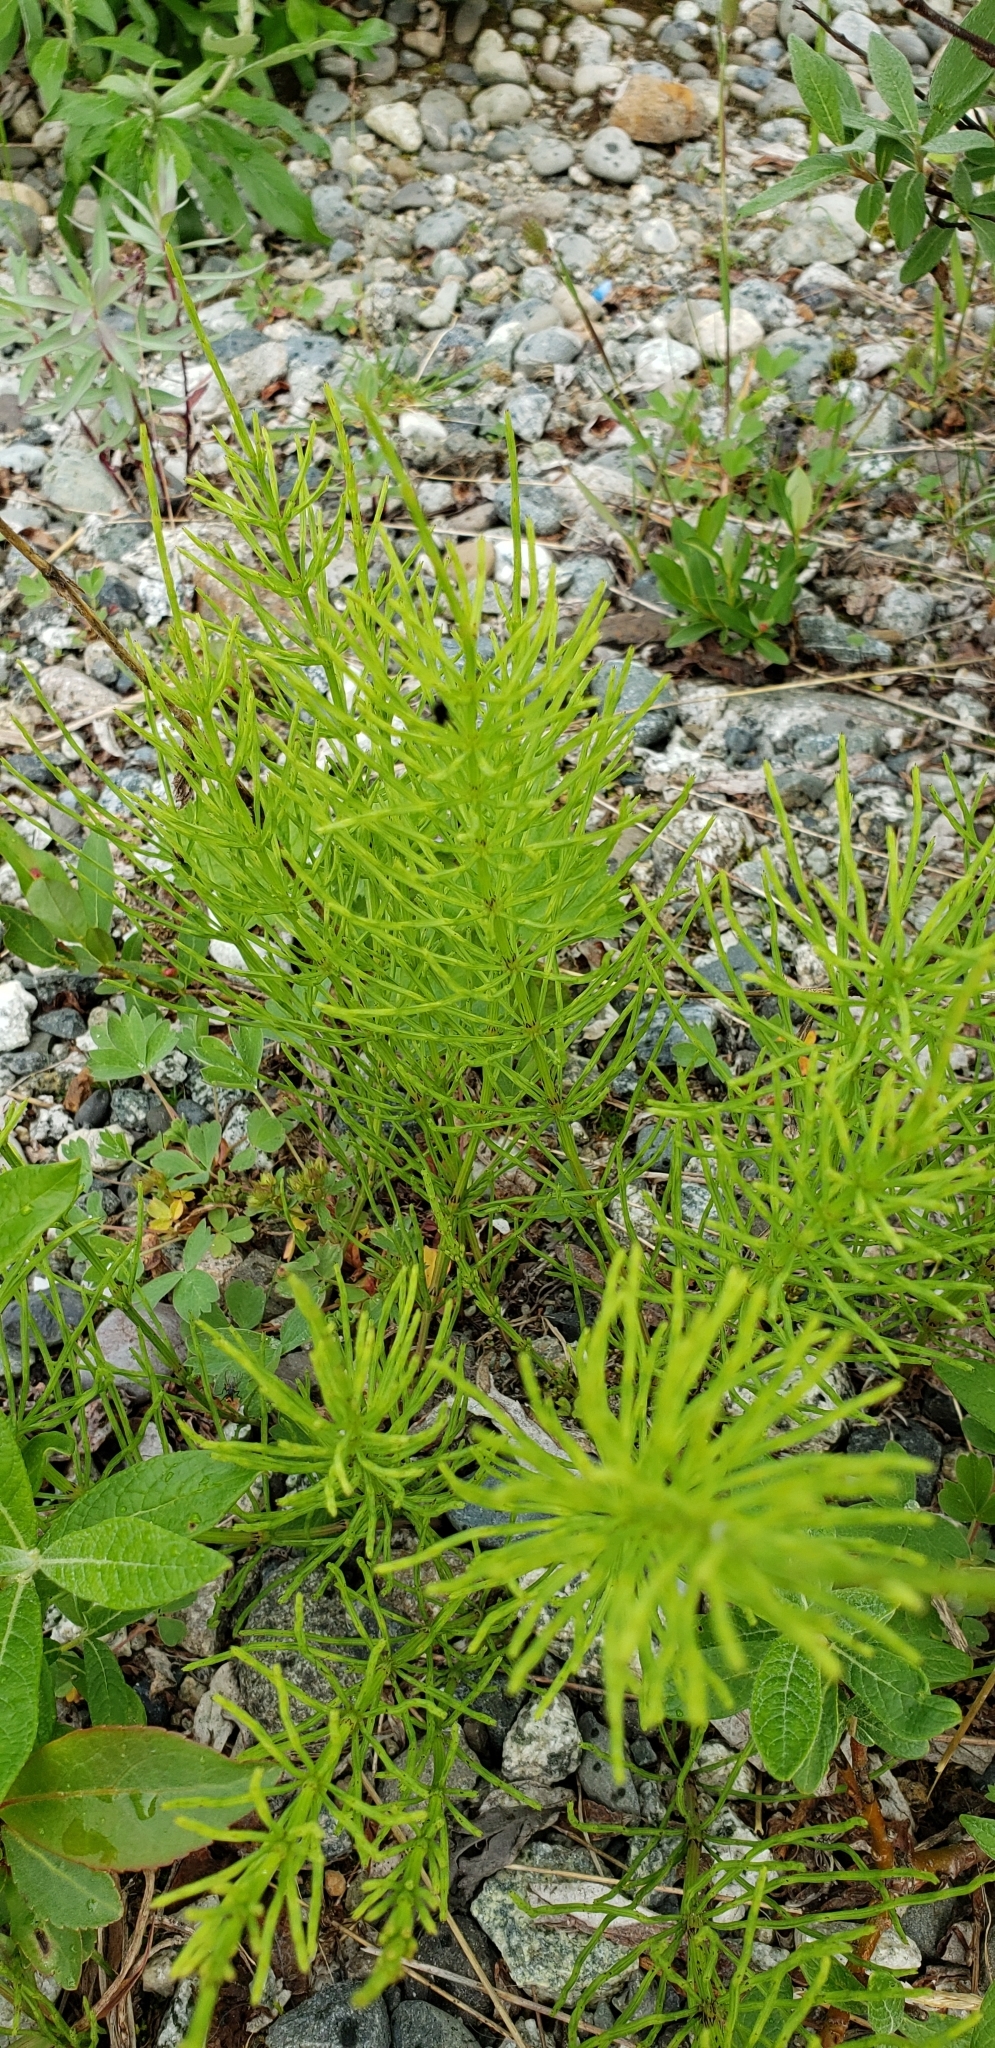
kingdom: Plantae
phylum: Tracheophyta
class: Polypodiopsida
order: Equisetales
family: Equisetaceae
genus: Equisetum
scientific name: Equisetum arvense
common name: Field horsetail
